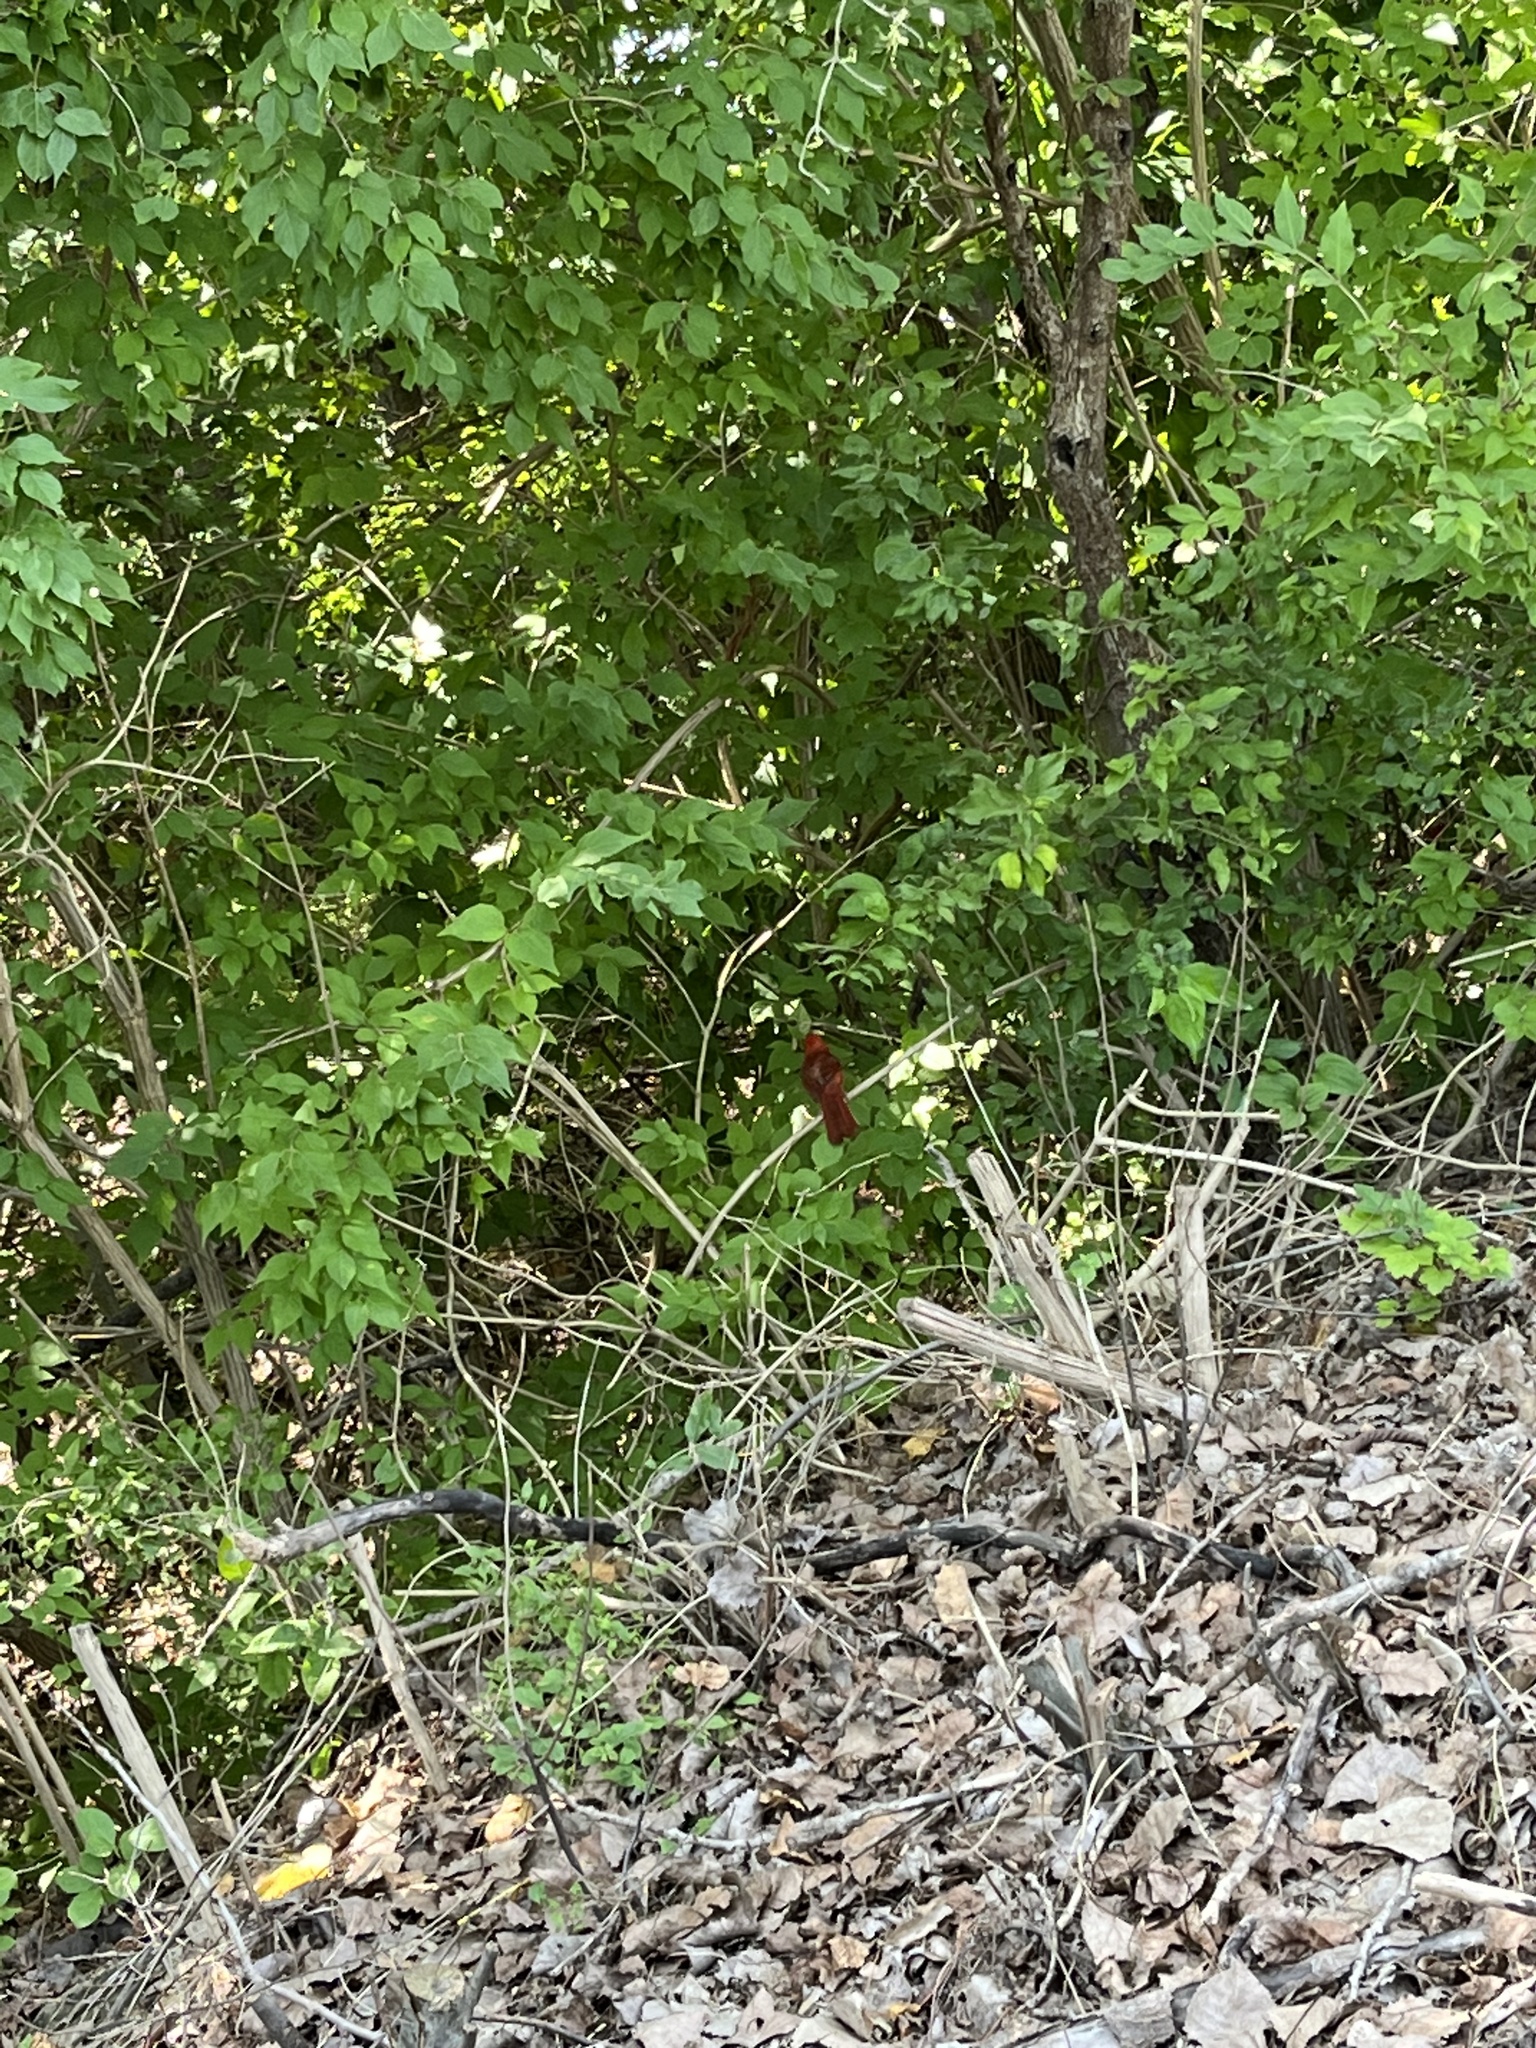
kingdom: Animalia
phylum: Chordata
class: Aves
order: Passeriformes
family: Cardinalidae
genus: Cardinalis
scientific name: Cardinalis cardinalis
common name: Northern cardinal
